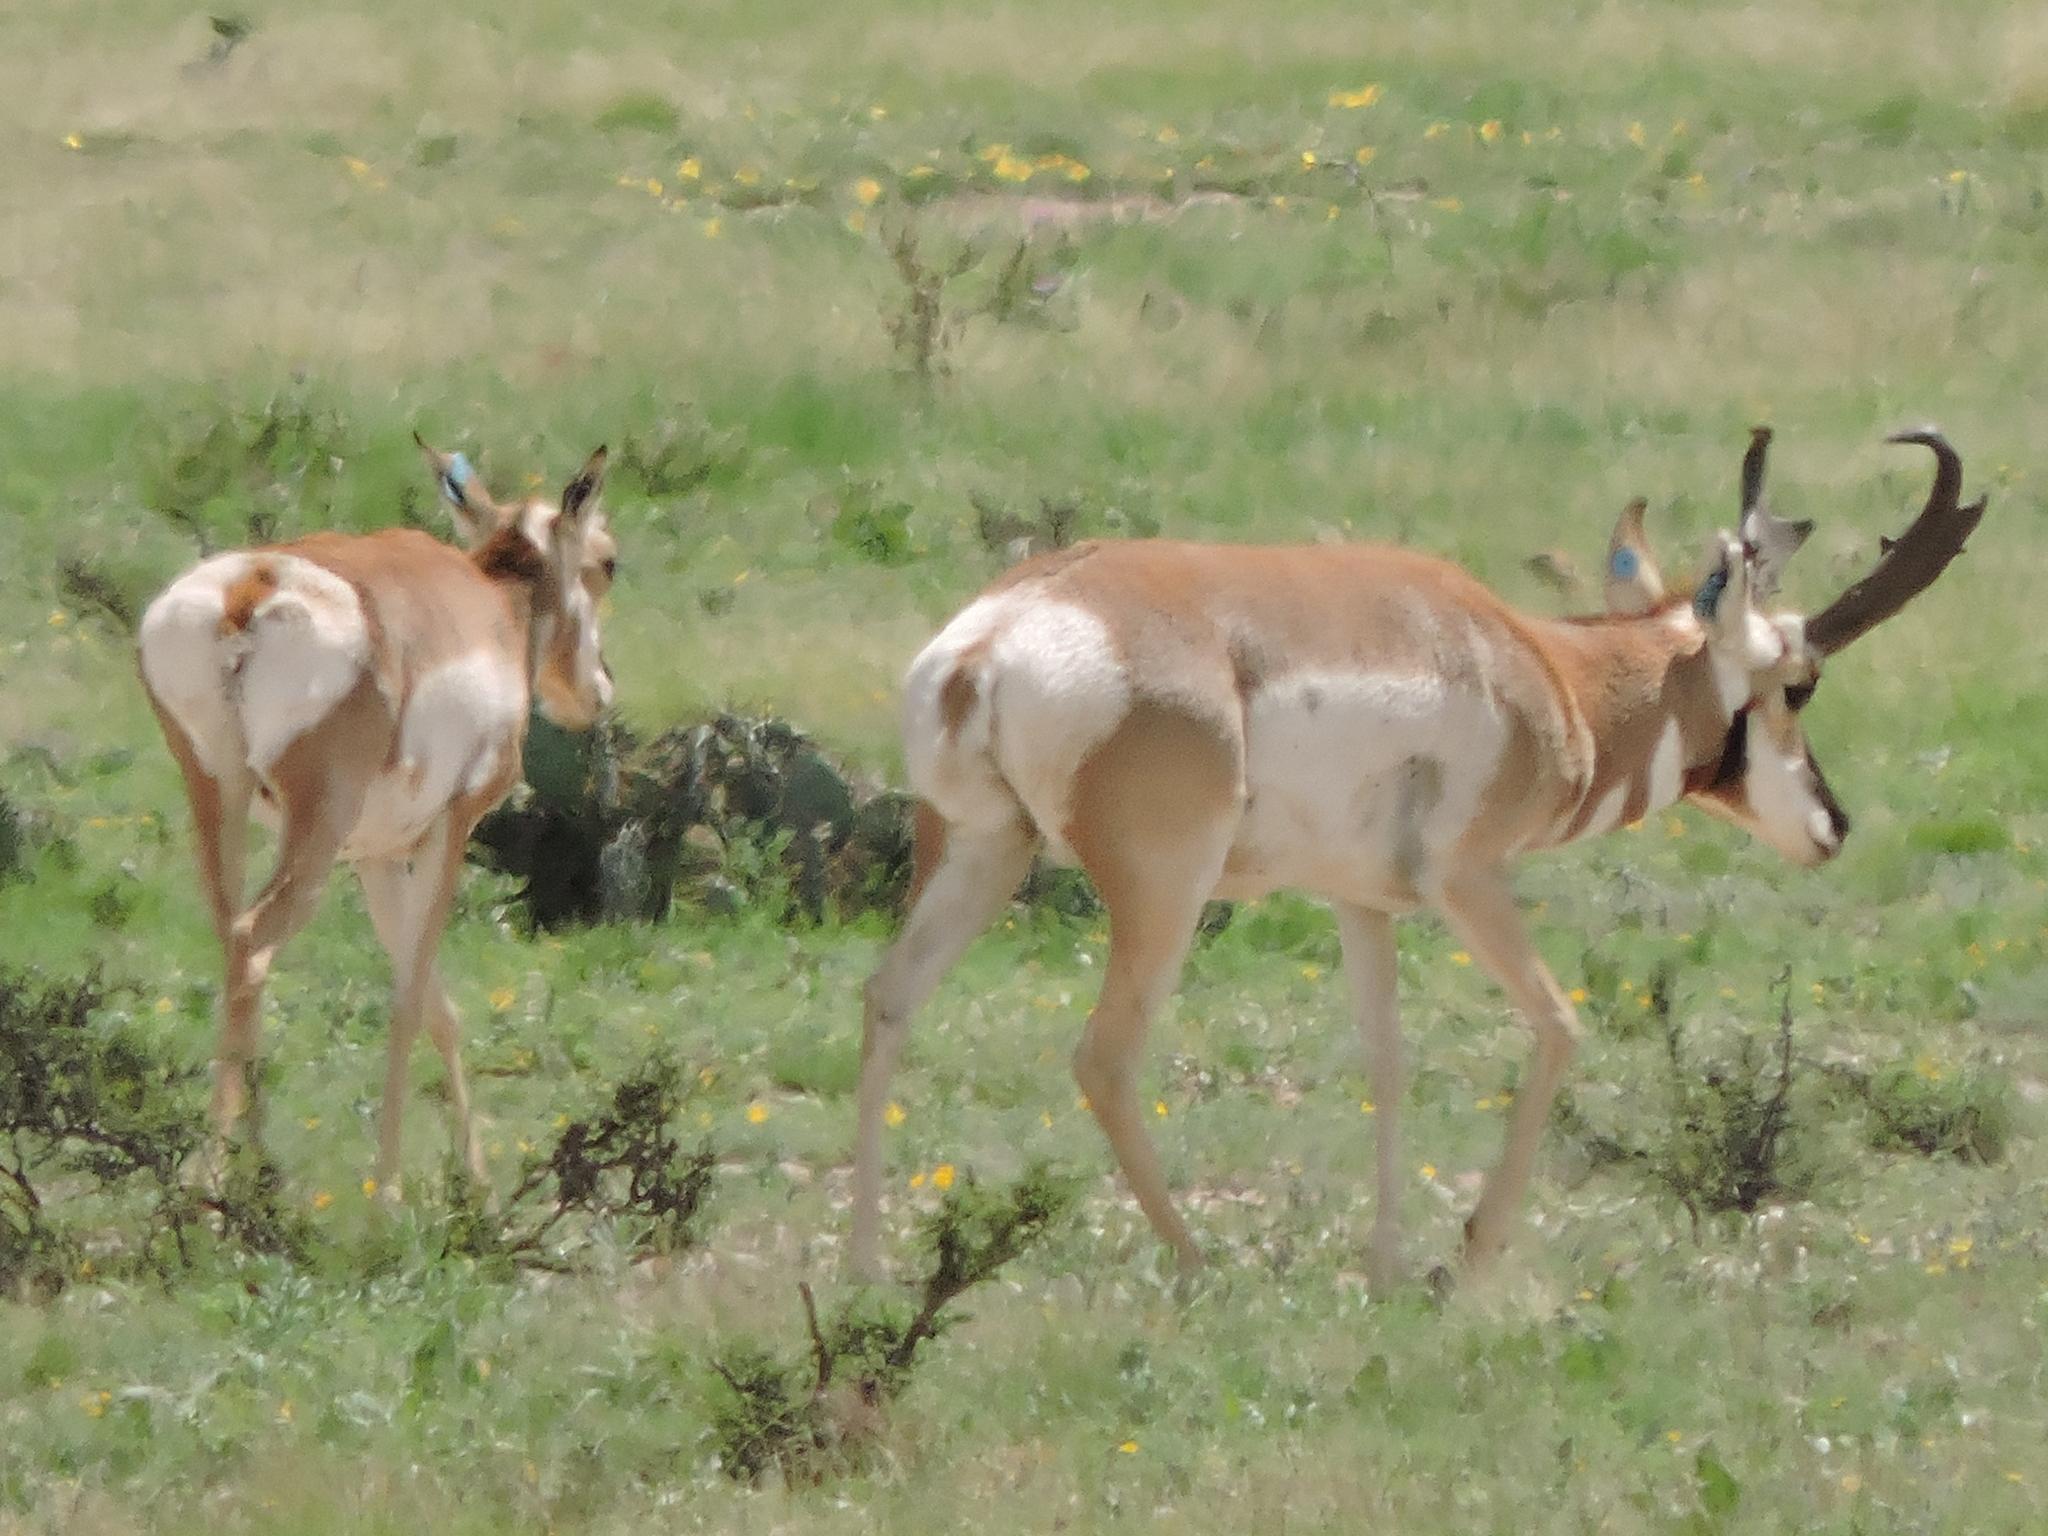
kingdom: Animalia
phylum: Chordata
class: Mammalia
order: Artiodactyla
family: Antilocapridae
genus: Antilocapra
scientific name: Antilocapra americana
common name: Pronghorn
